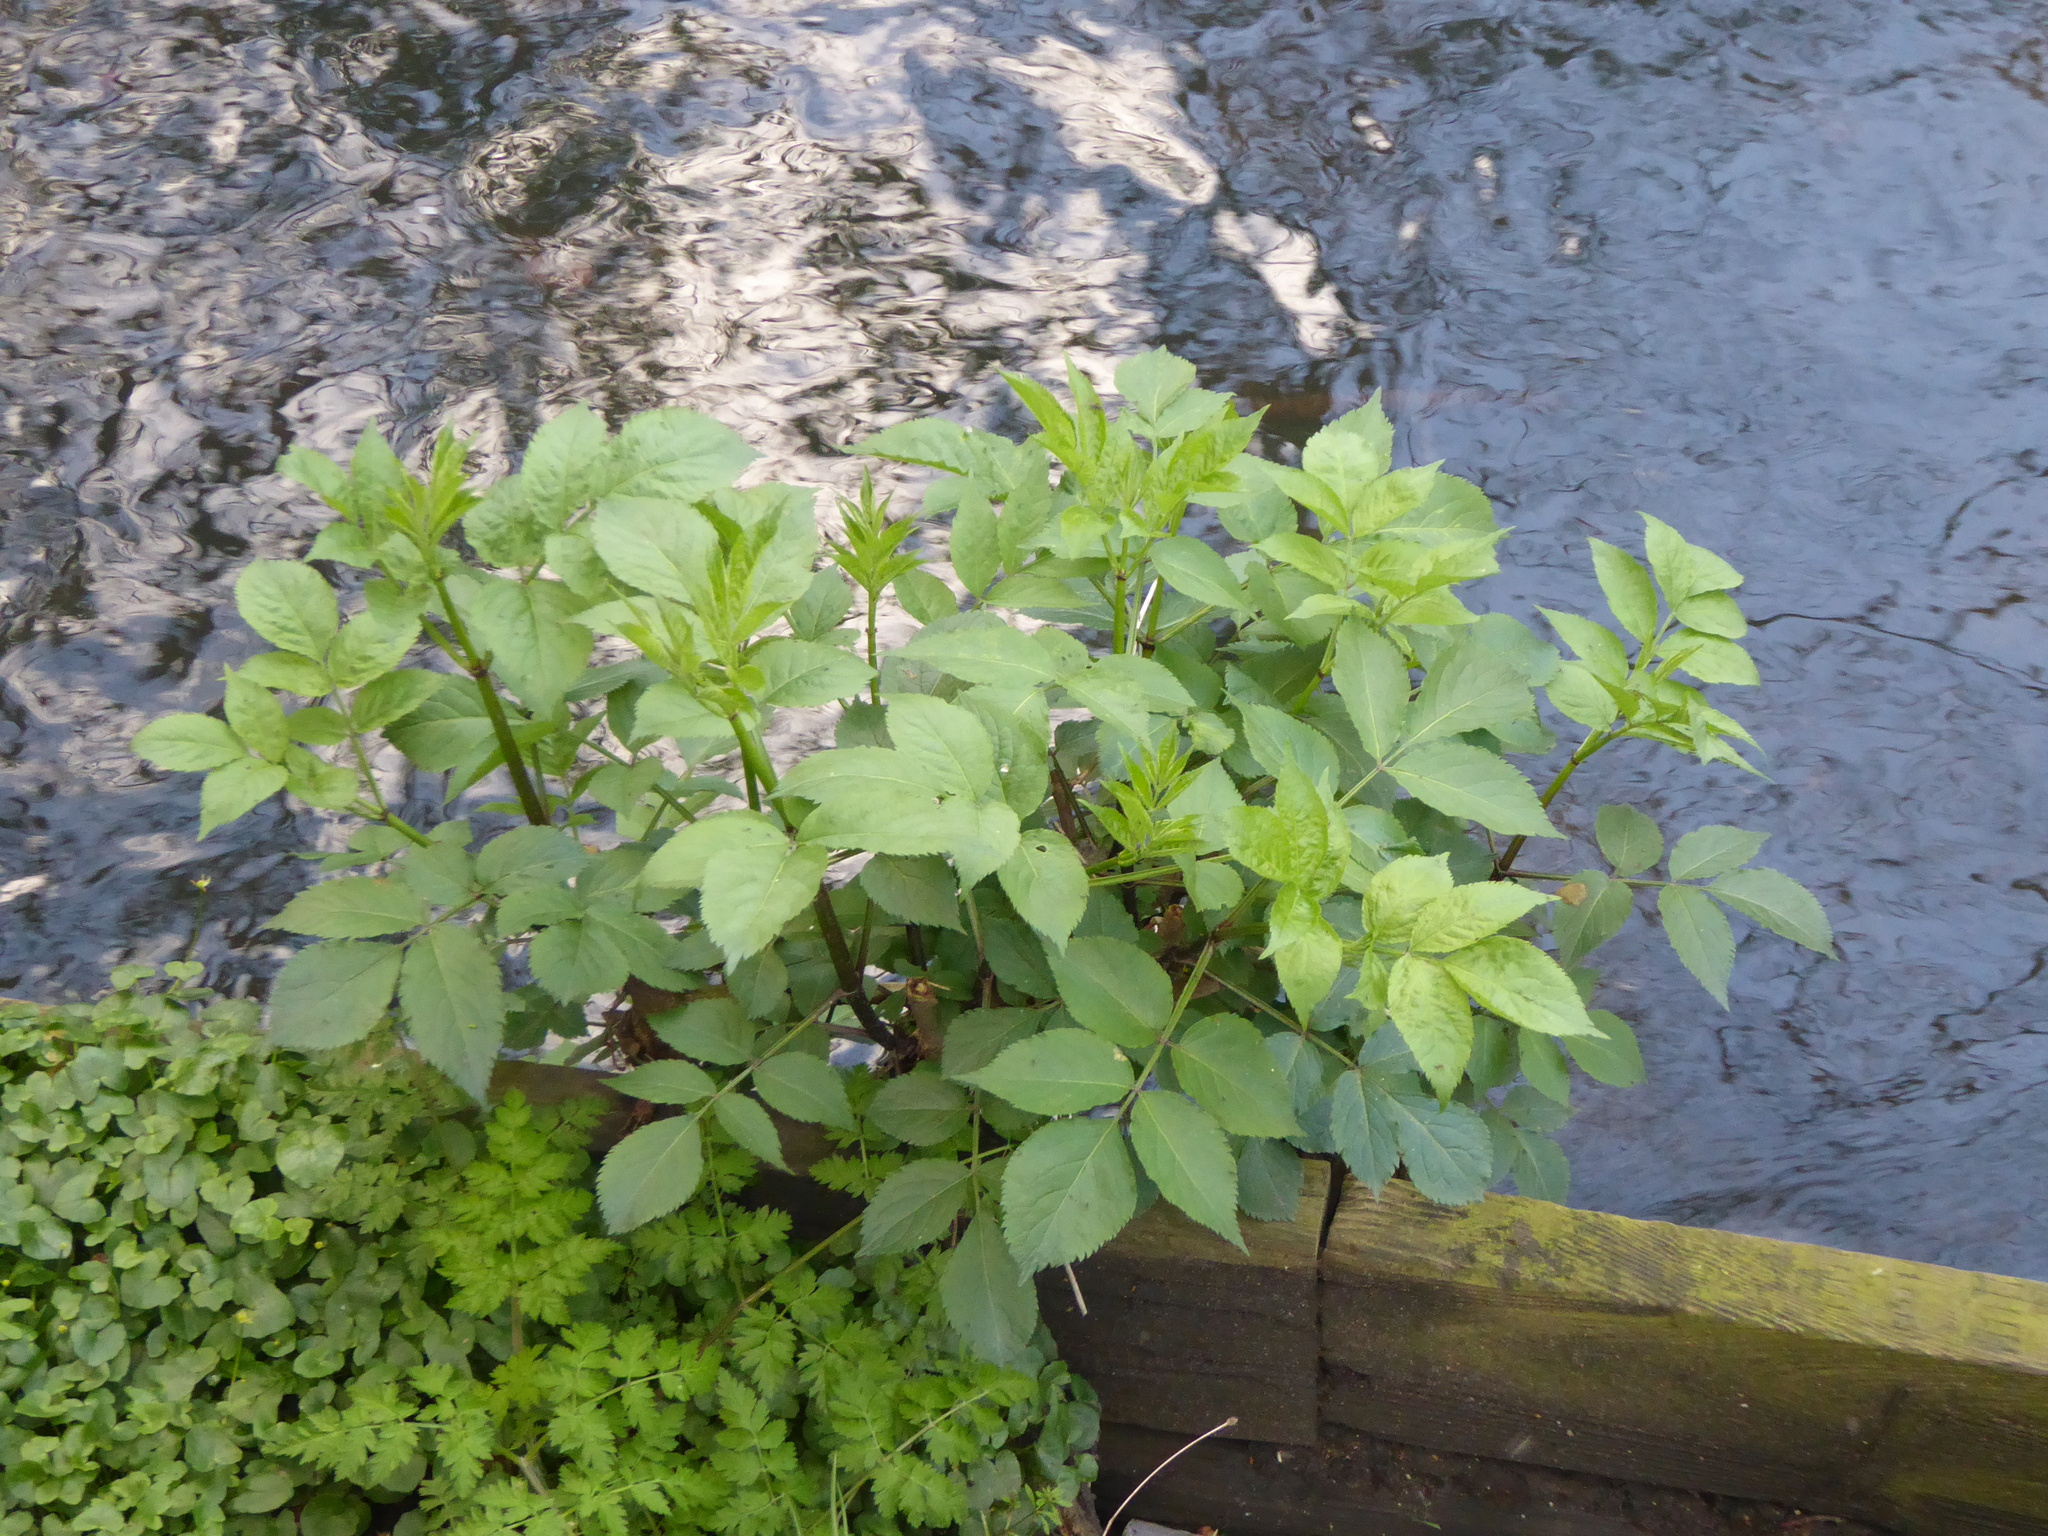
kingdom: Plantae
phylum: Tracheophyta
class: Magnoliopsida
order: Dipsacales
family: Viburnaceae
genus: Sambucus
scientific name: Sambucus nigra
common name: Elder
